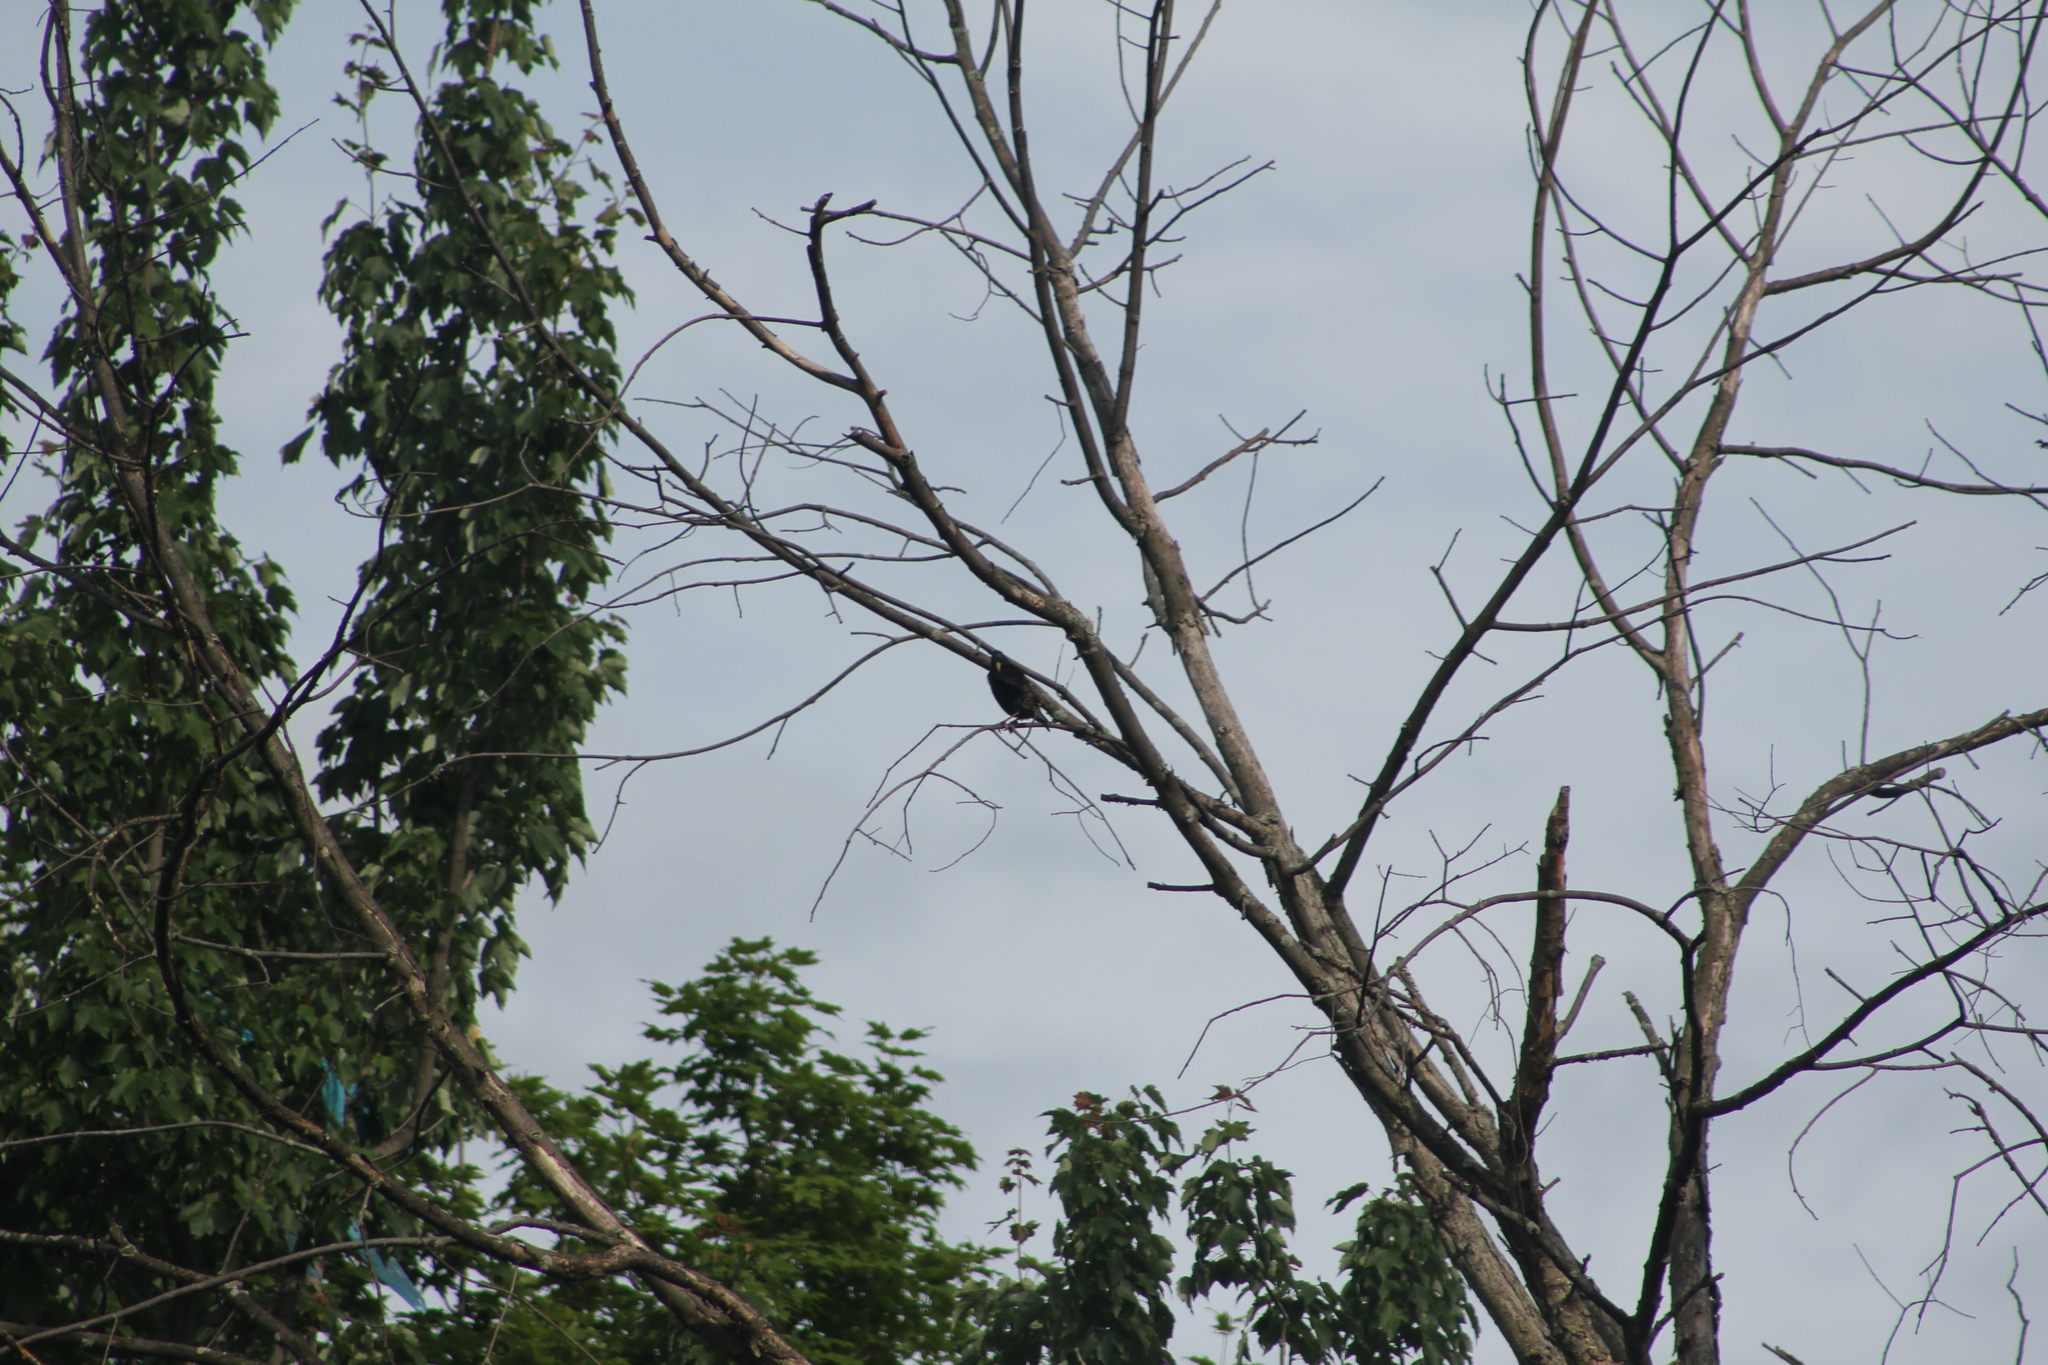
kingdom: Animalia
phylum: Chordata
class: Aves
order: Passeriformes
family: Sturnidae
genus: Sturnus
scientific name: Sturnus vulgaris
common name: Common starling
